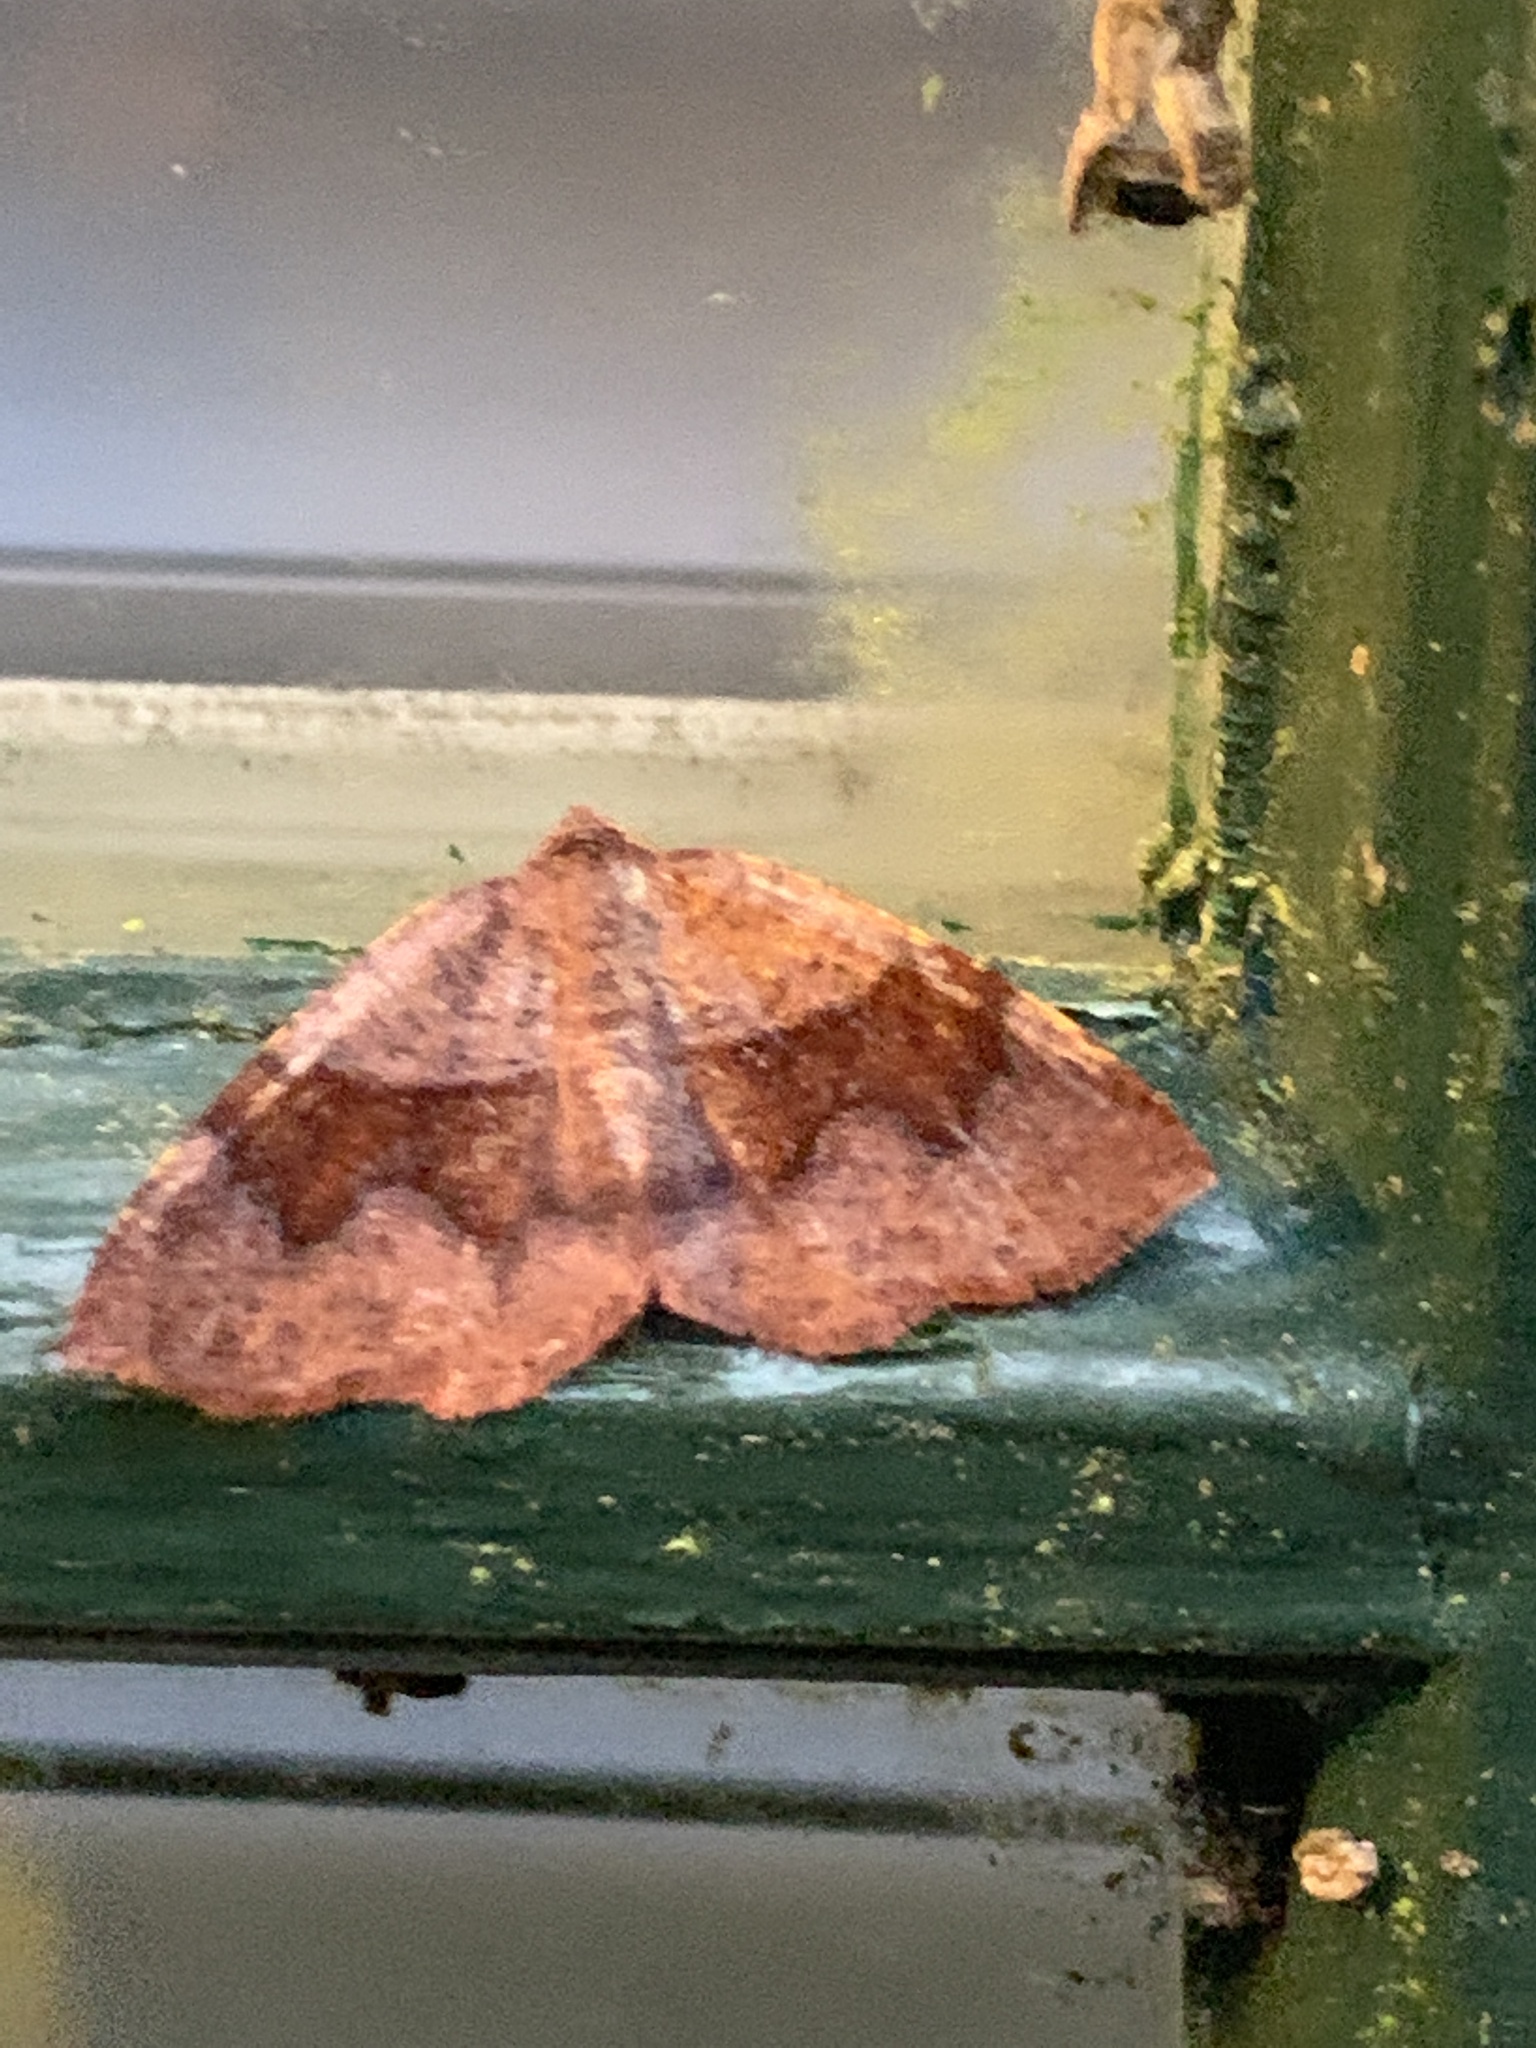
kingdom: Animalia
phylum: Arthropoda
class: Insecta
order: Lepidoptera
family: Geometridae
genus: Plagodis
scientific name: Plagodis pulveraria
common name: Barred umber
